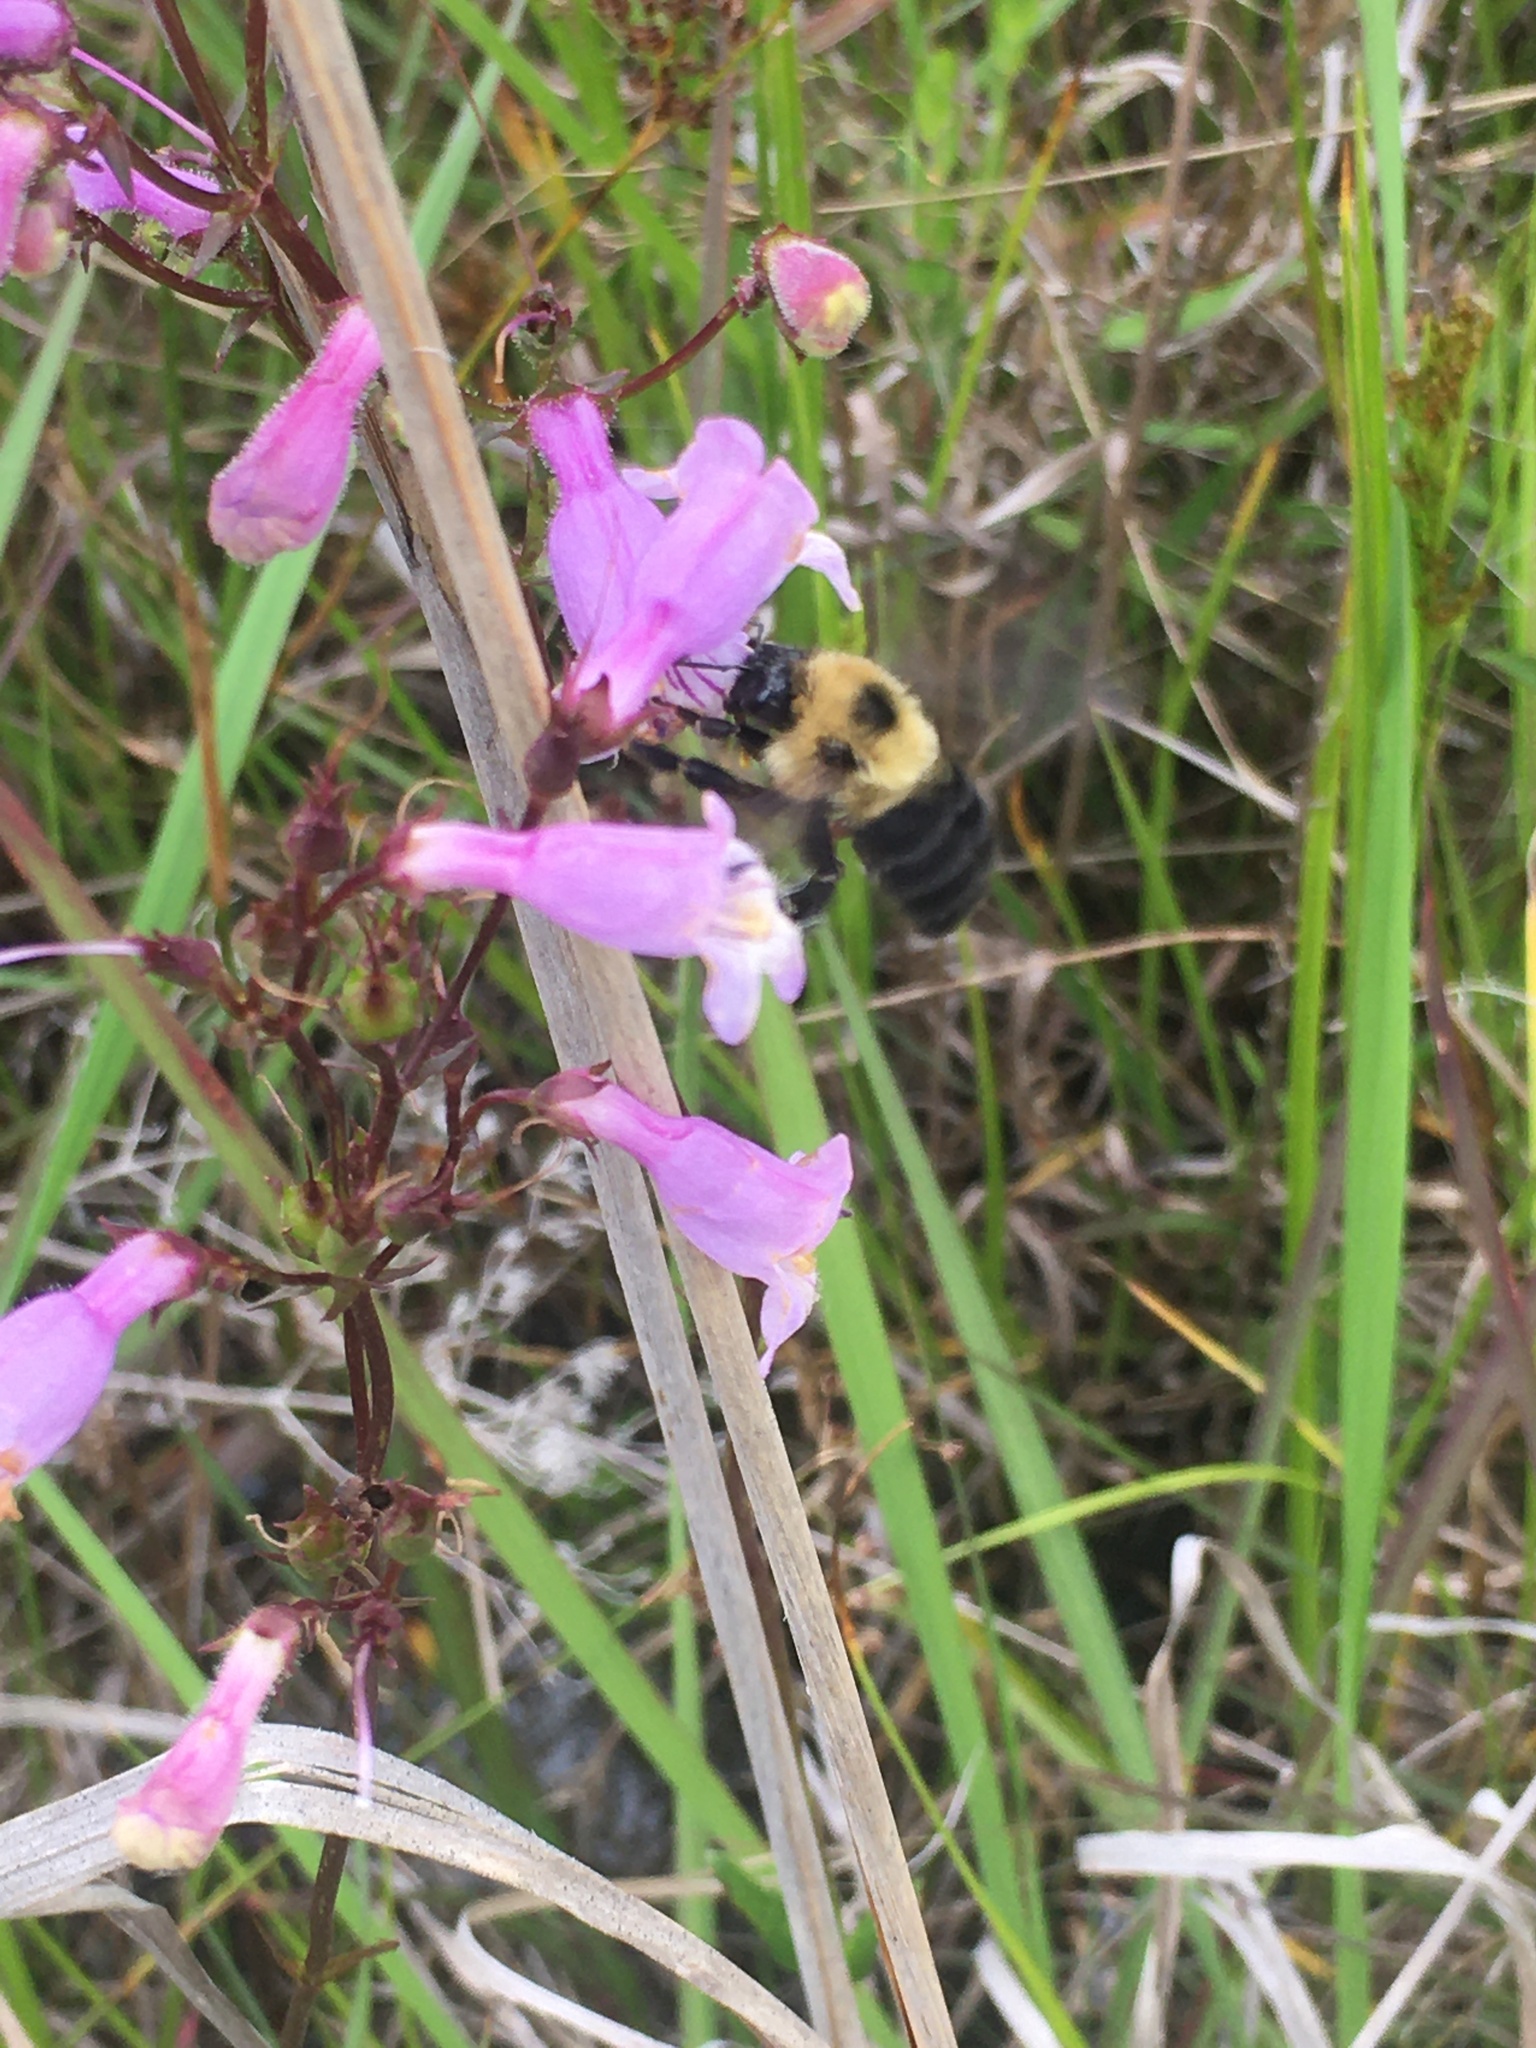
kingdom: Animalia
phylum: Arthropoda
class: Insecta
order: Hymenoptera
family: Apidae
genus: Bombus
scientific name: Bombus bimaculatus
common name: Two-spotted bumble bee
